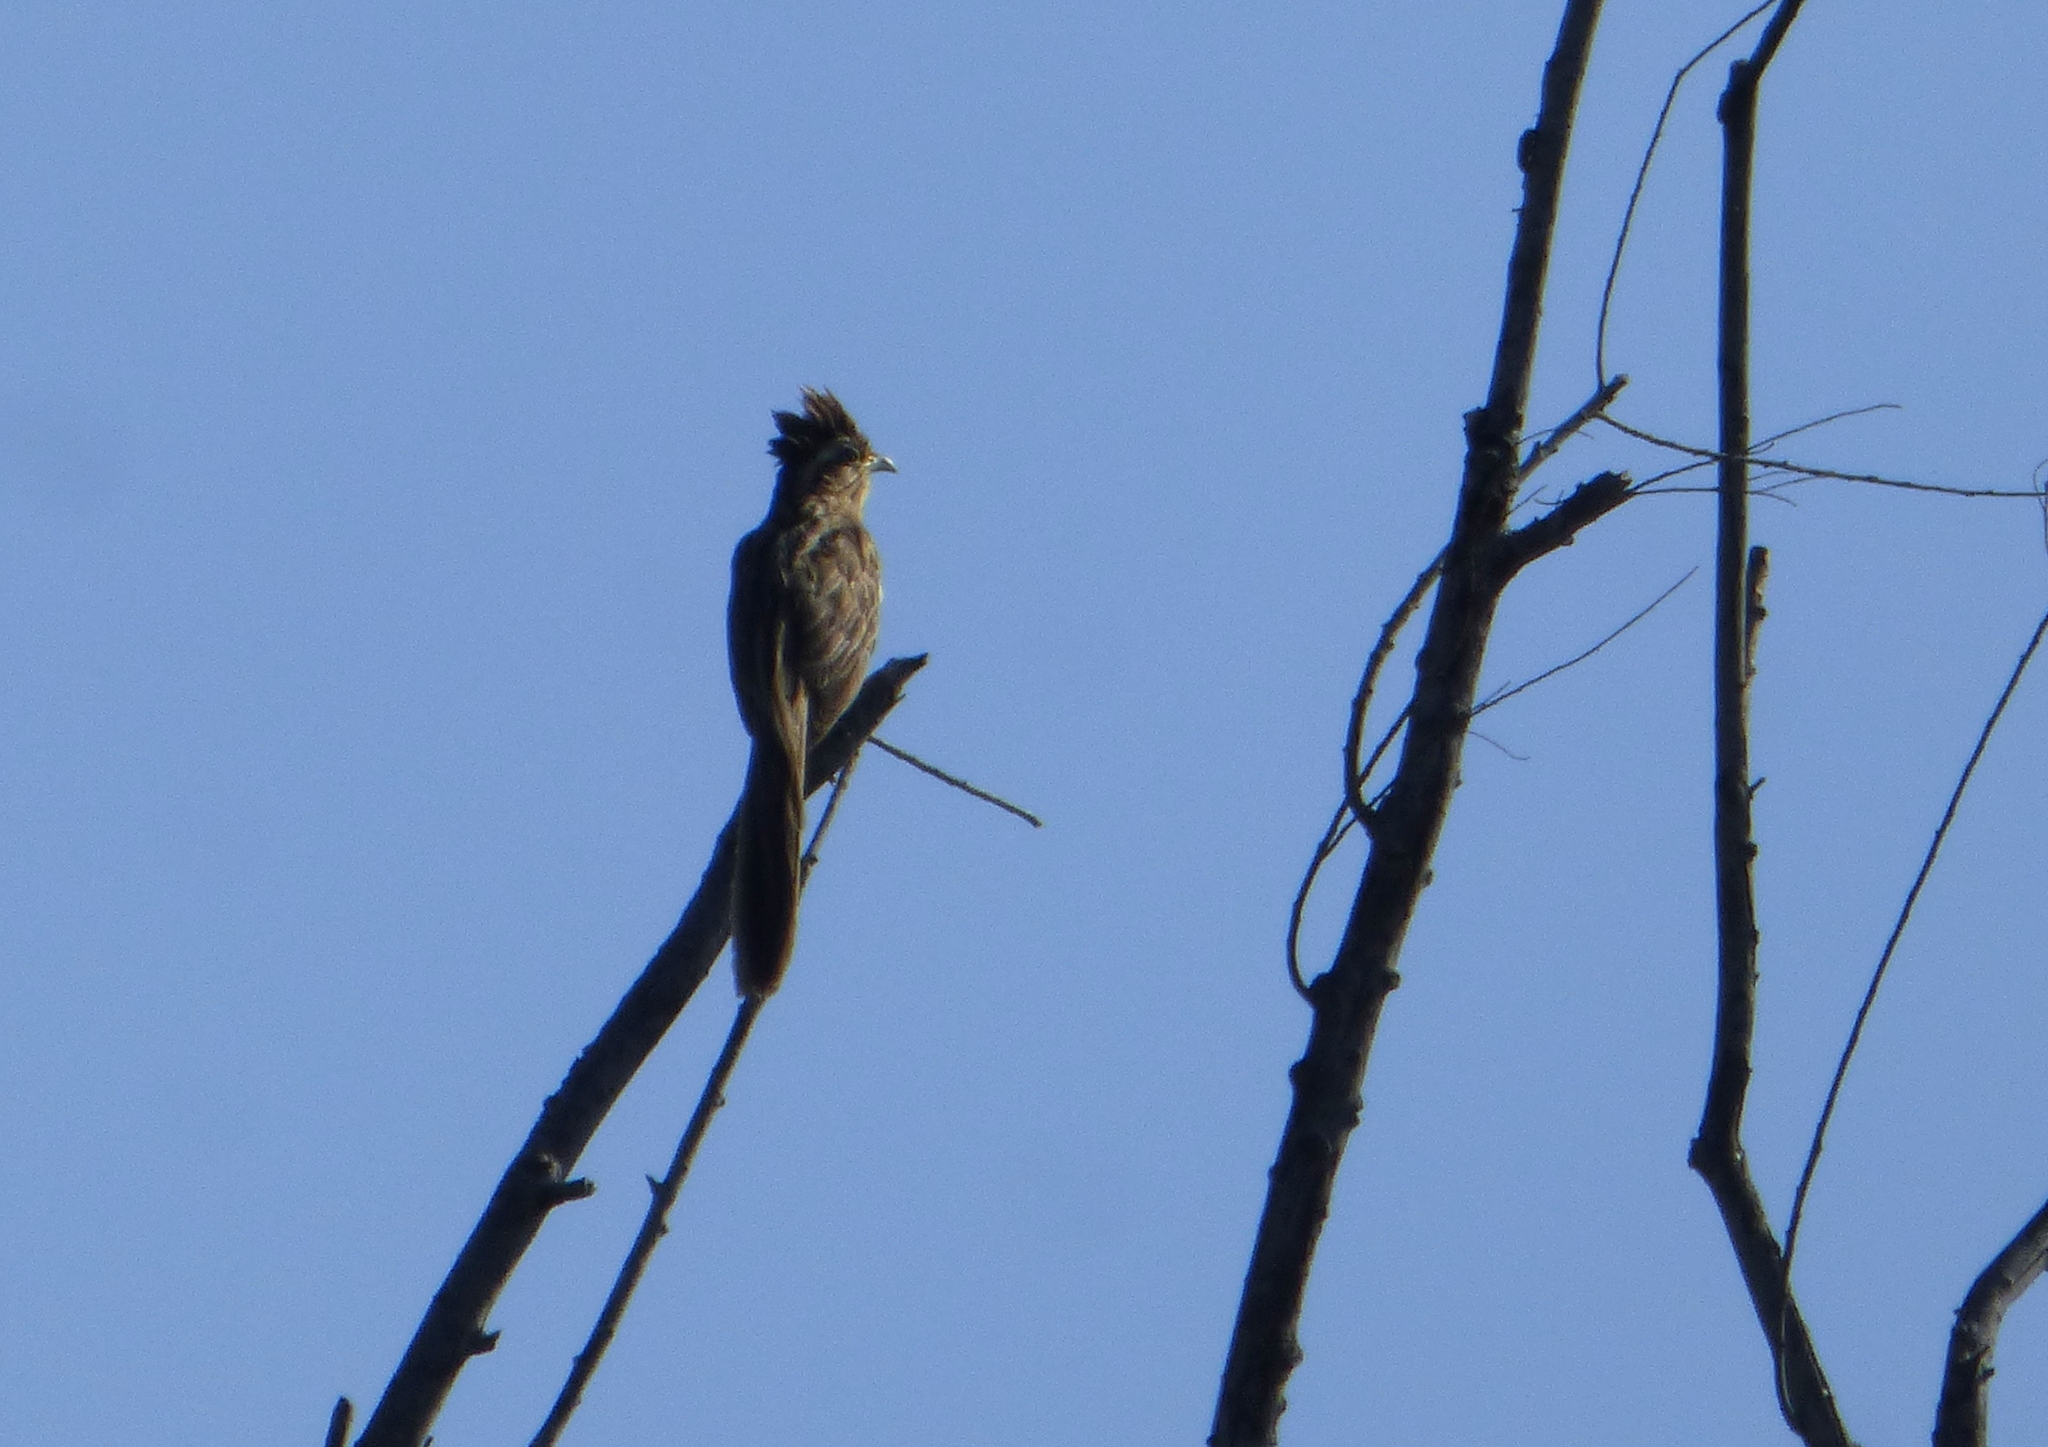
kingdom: Animalia
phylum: Chordata
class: Aves
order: Cuculiformes
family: Cuculidae
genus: Tapera
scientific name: Tapera naevia
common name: Striped cuckoo
